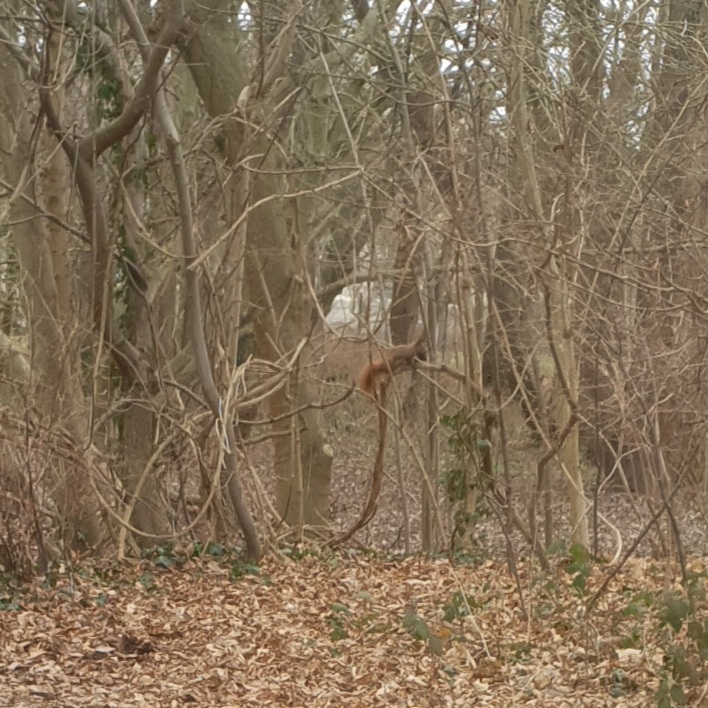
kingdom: Animalia
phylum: Chordata
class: Mammalia
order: Rodentia
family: Sciuridae
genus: Sciurus
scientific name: Sciurus vulgaris
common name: Eurasian red squirrel
